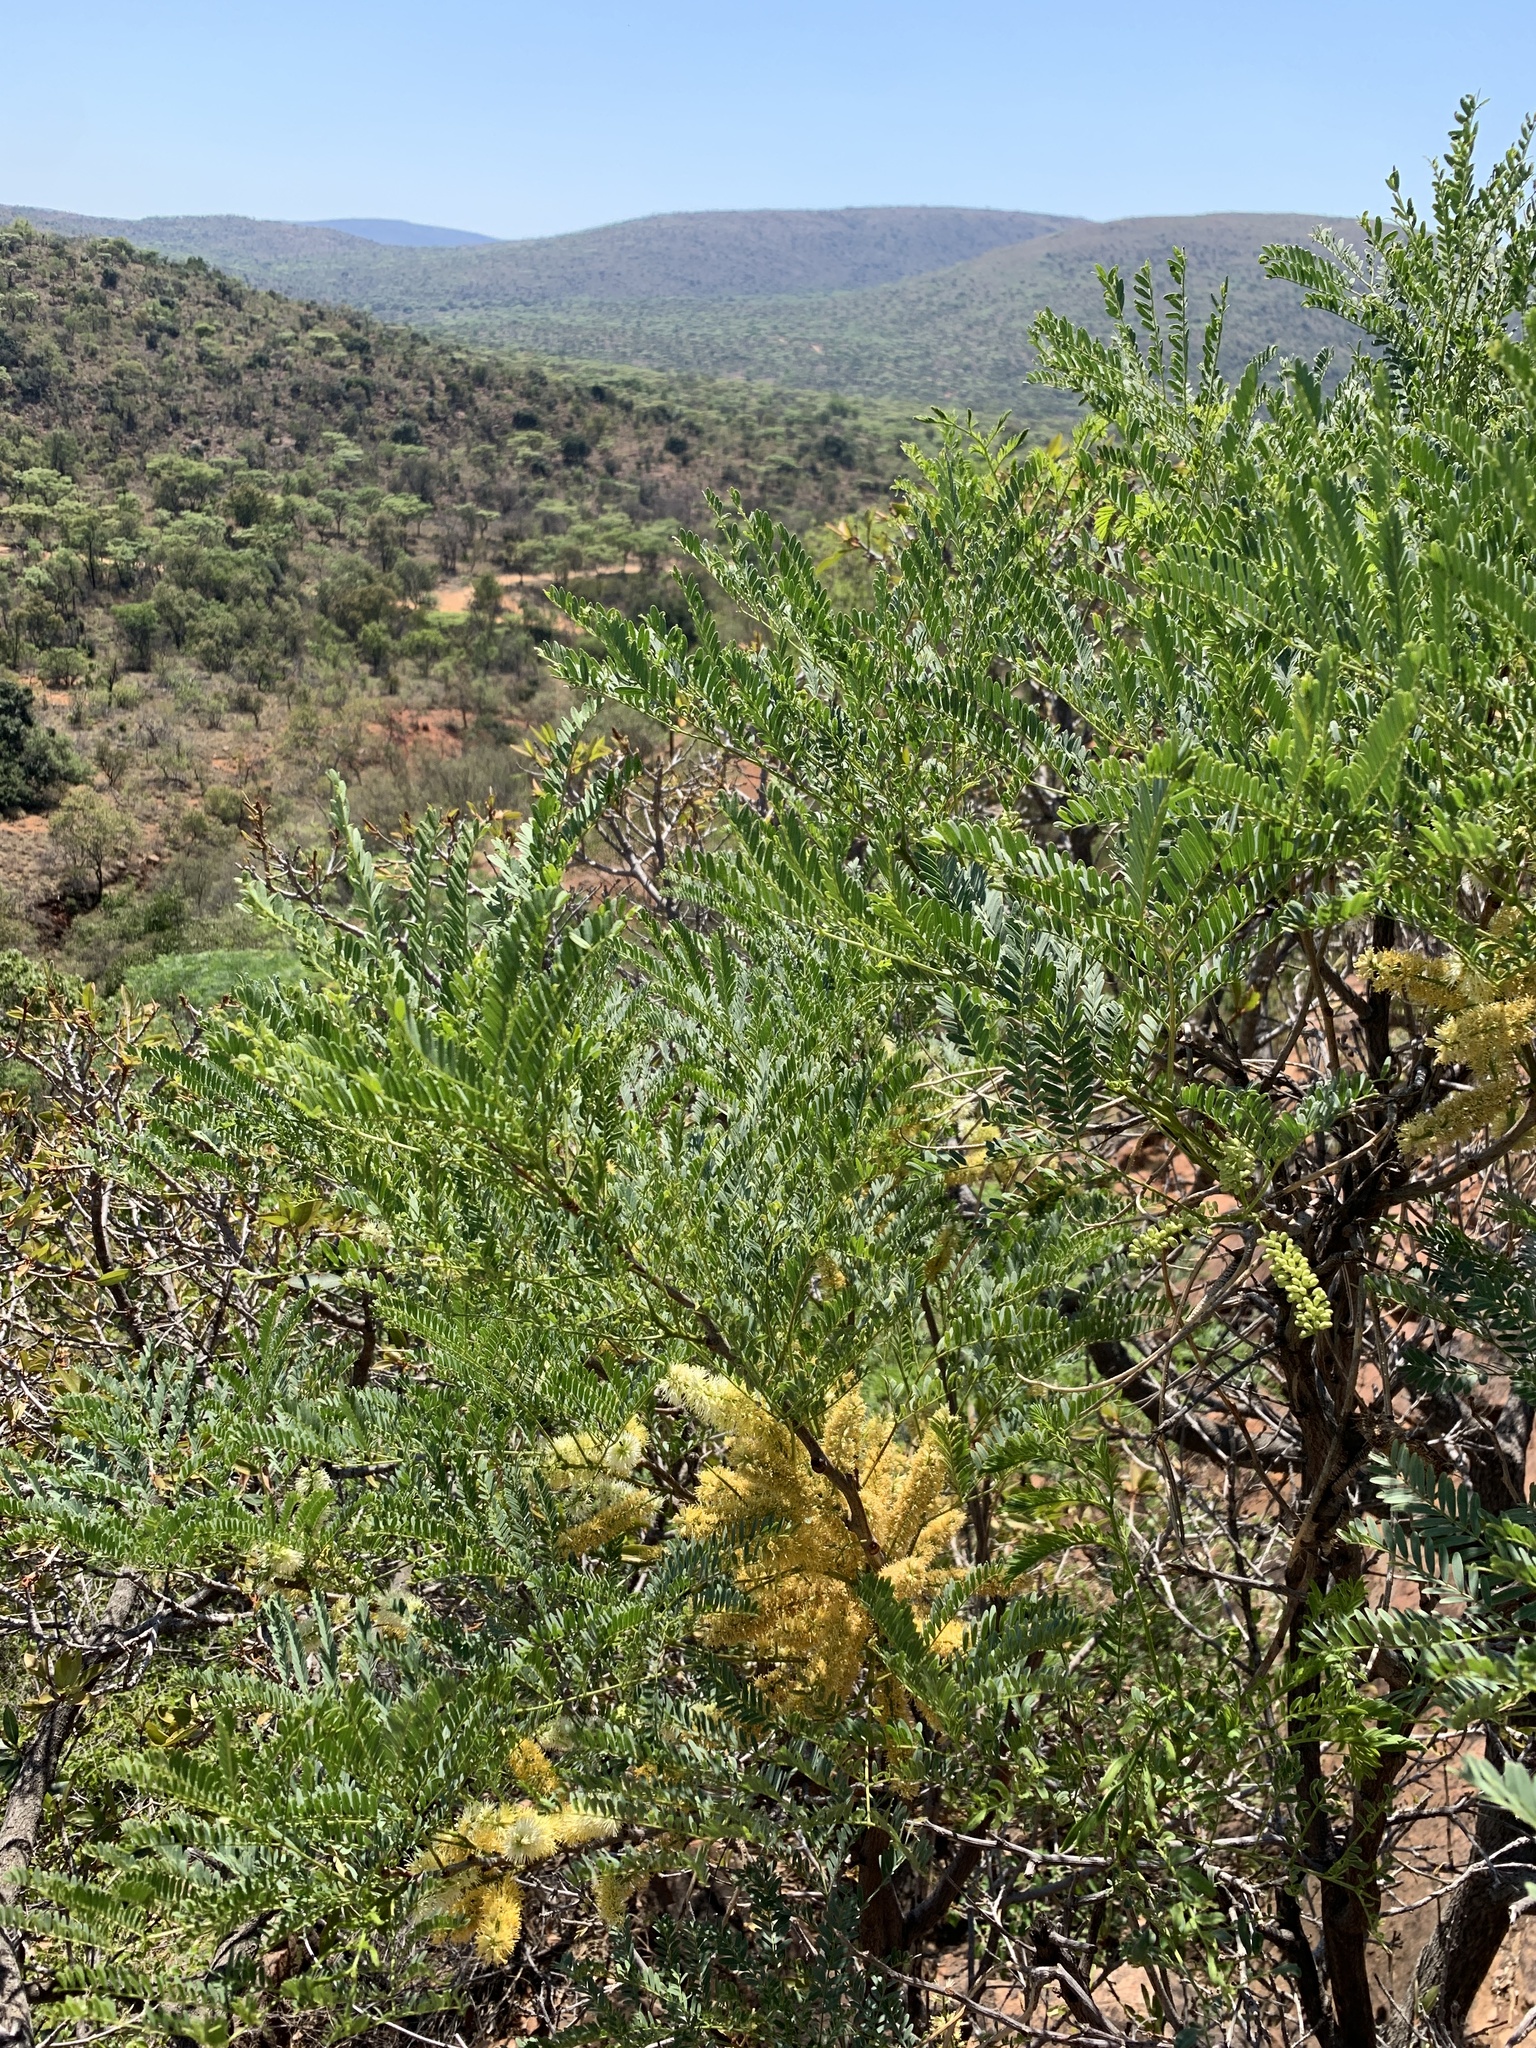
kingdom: Plantae
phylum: Tracheophyta
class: Magnoliopsida
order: Fabales
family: Fabaceae
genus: Elephantorrhiza
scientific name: Elephantorrhiza burkei
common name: Broad-pod elephant-root
